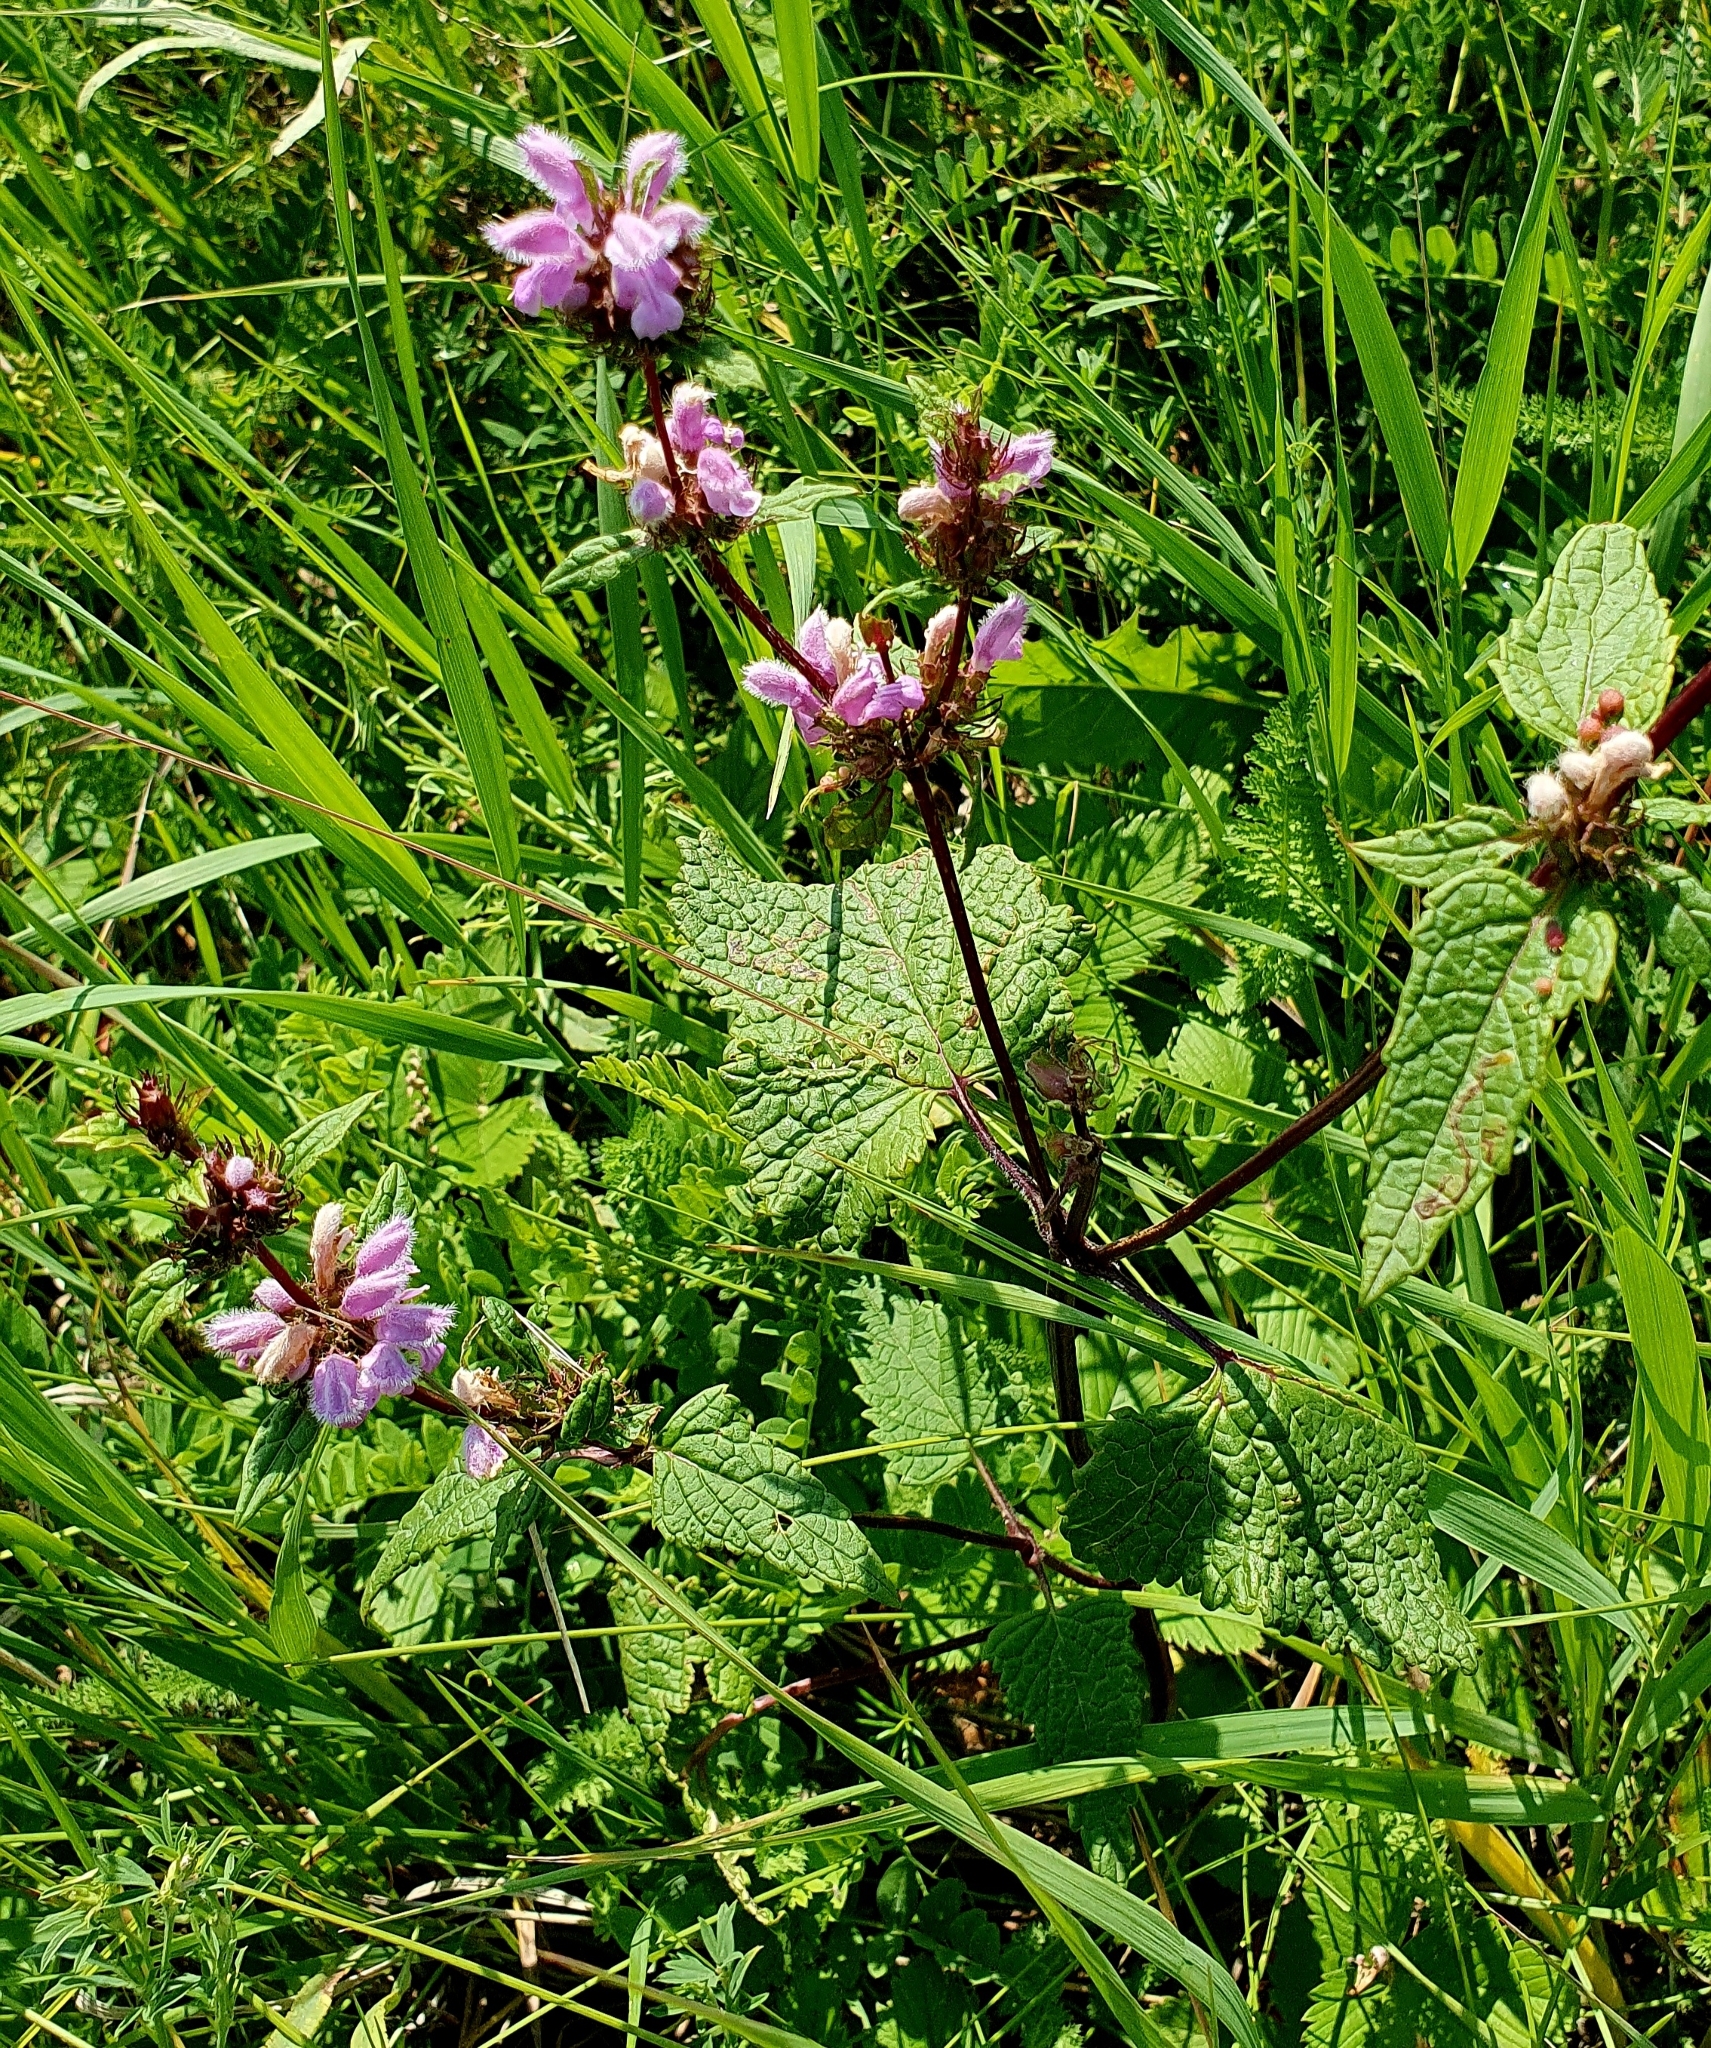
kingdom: Plantae
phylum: Tracheophyta
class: Magnoliopsida
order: Lamiales
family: Lamiaceae
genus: Phlomoides
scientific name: Phlomoides tuberosa
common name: Tuberous jerusalem sage
